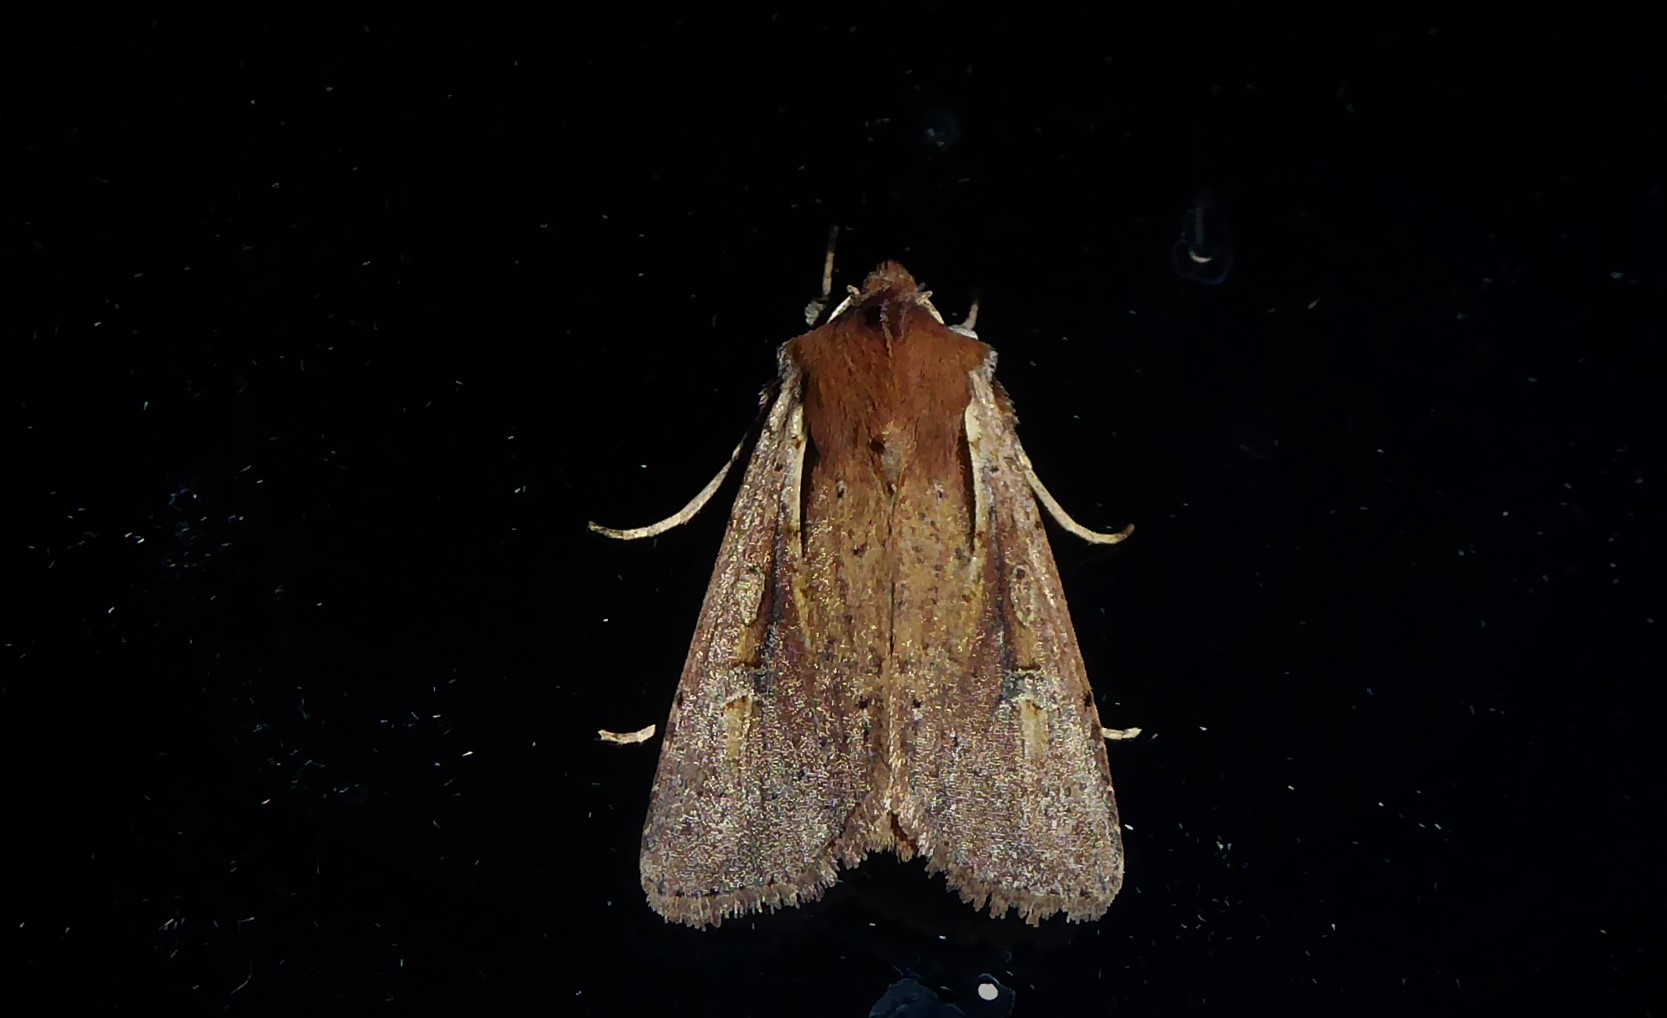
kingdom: Animalia
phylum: Arthropoda
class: Insecta
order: Lepidoptera
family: Noctuidae
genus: Ichneutica
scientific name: Ichneutica atristriga
